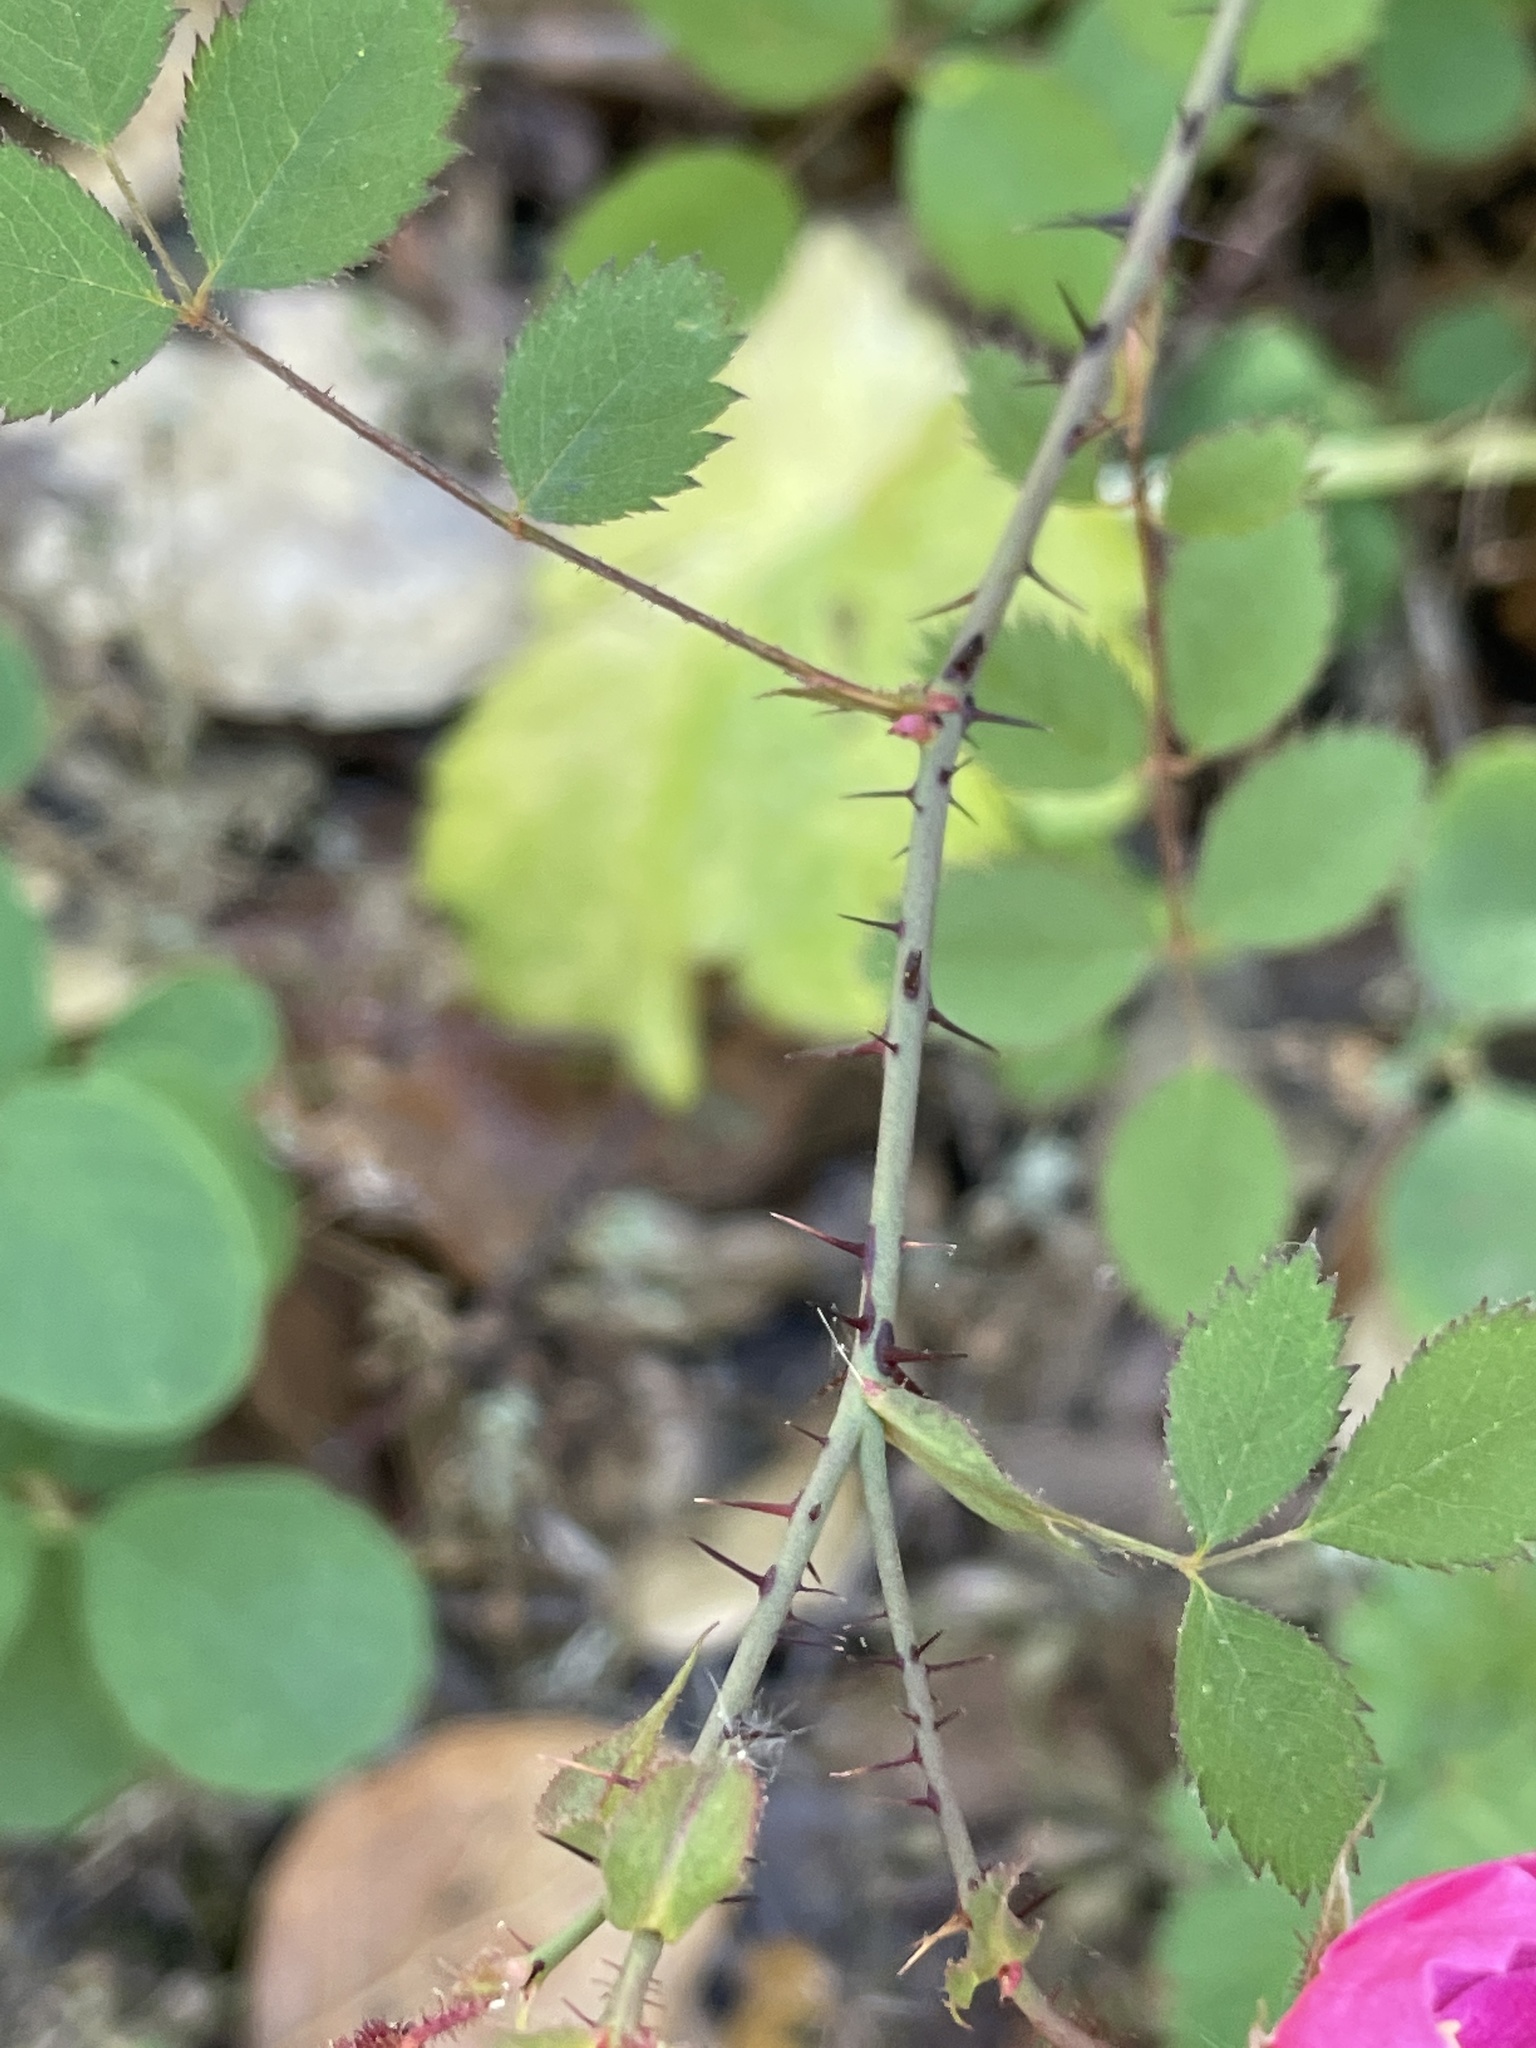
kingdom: Plantae
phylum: Tracheophyta
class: Magnoliopsida
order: Rosales
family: Rosaceae
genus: Rosa
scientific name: Rosa spithamea
